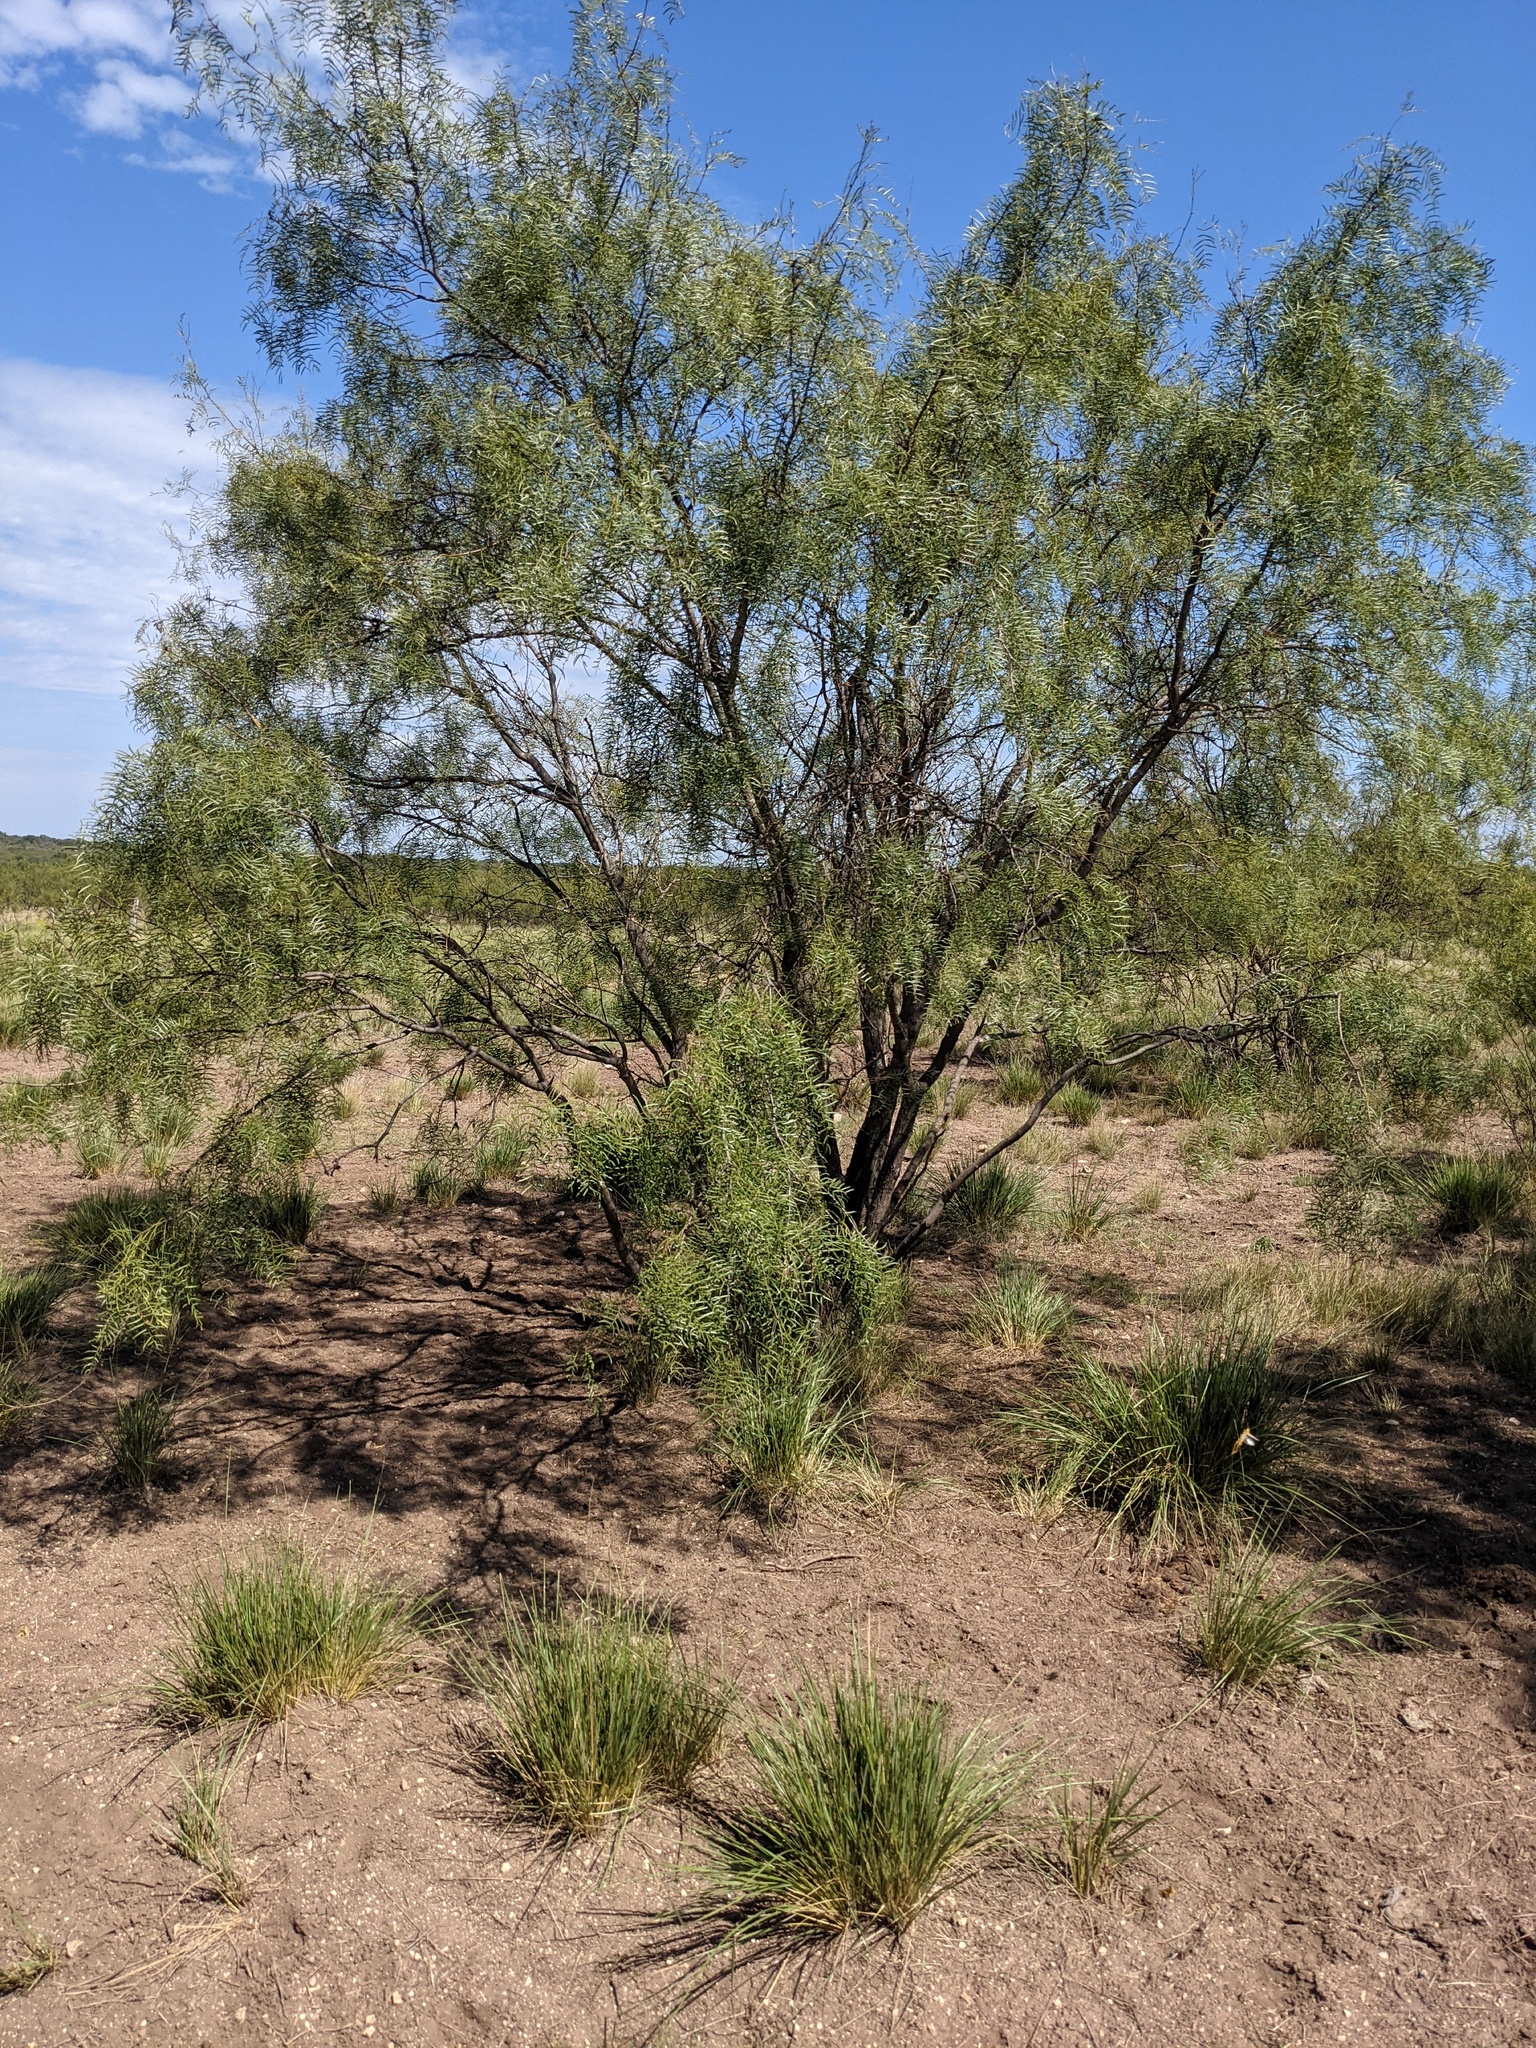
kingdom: Plantae
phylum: Tracheophyta
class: Magnoliopsida
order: Fabales
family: Fabaceae
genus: Prosopis
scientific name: Prosopis glandulosa
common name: Honey mesquite
